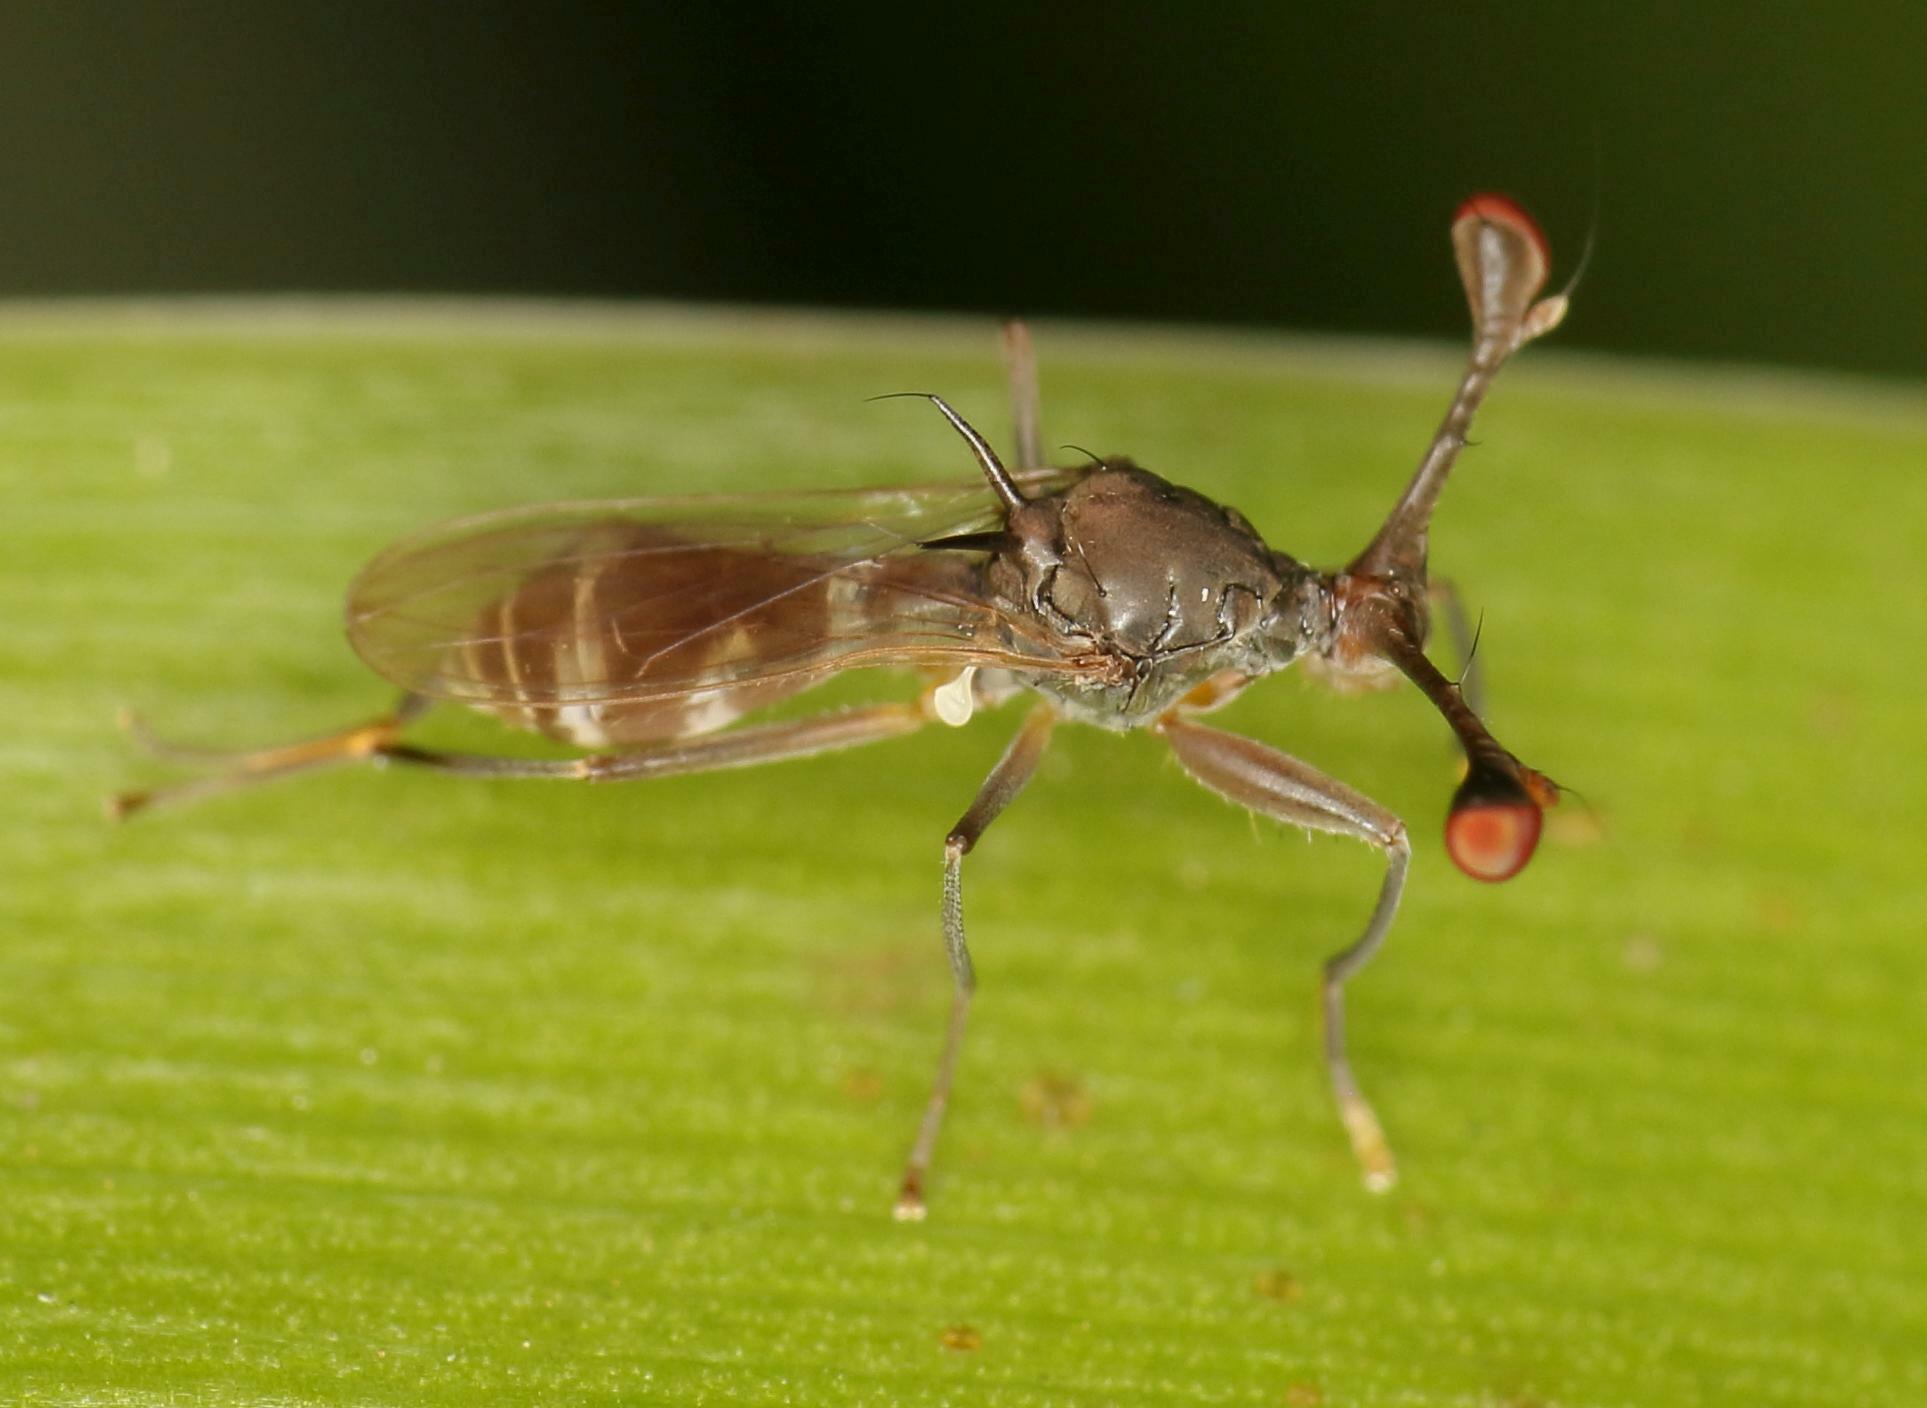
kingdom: Animalia
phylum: Arthropoda
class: Insecta
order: Diptera
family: Diopsidae
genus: Diasemopsis
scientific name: Diasemopsis dubia
